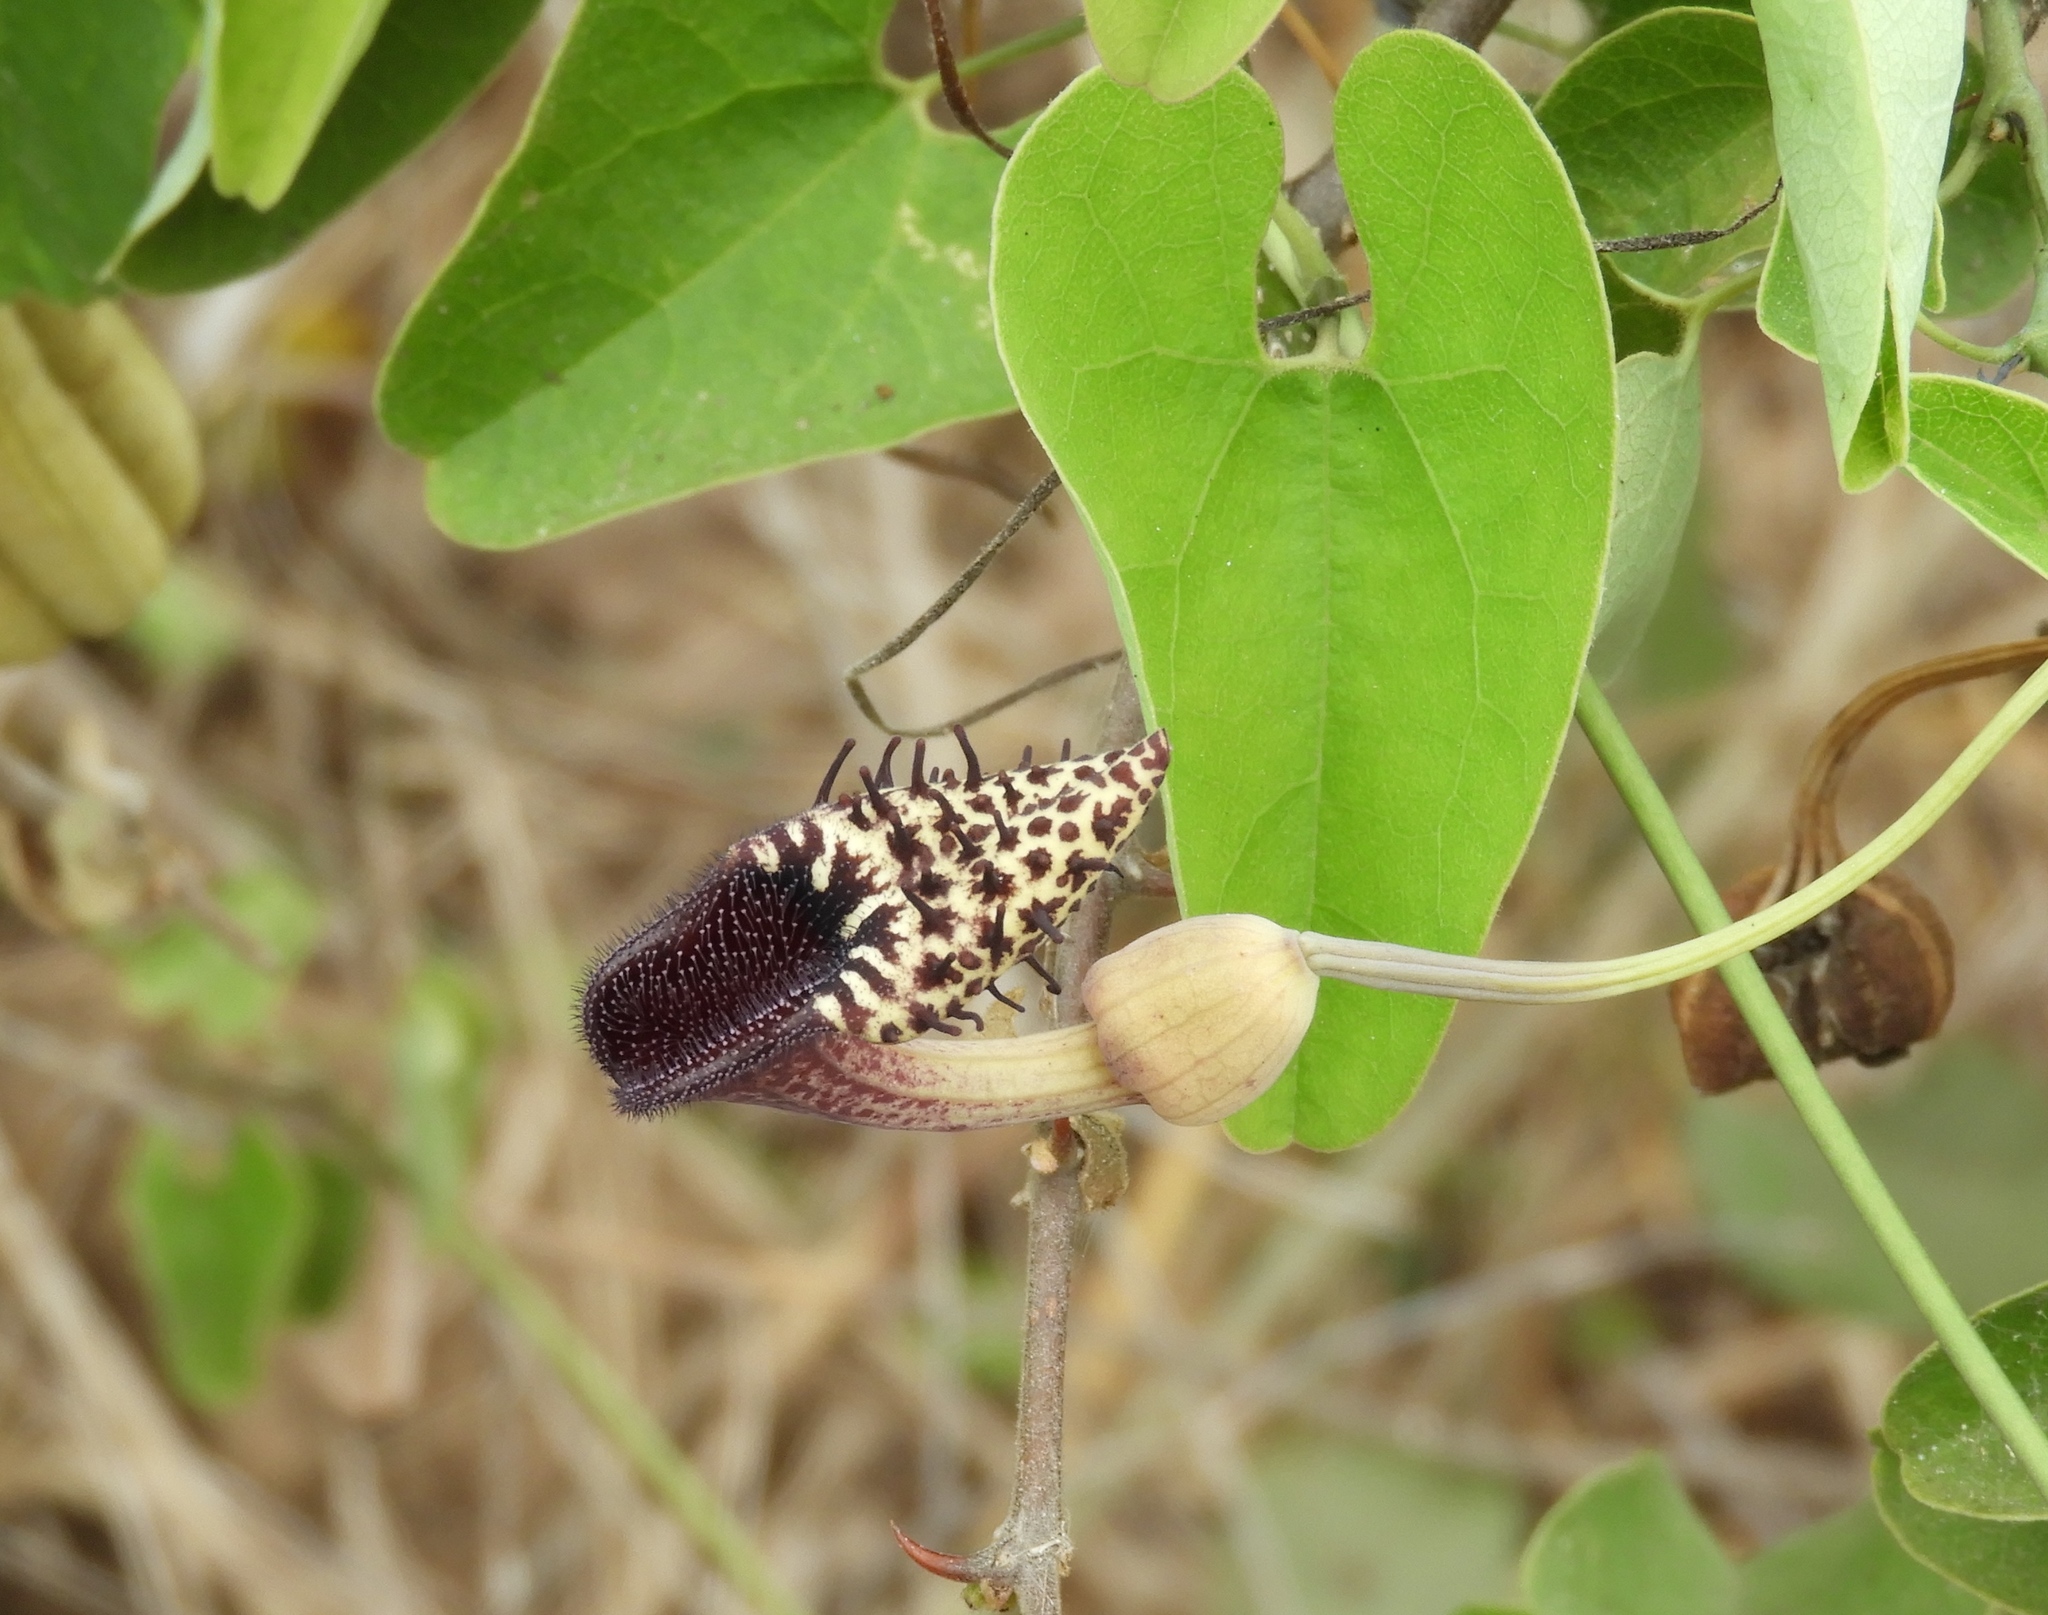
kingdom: Plantae
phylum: Tracheophyta
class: Magnoliopsida
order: Piperales
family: Aristolochiaceae
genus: Aristolochia
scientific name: Aristolochia taliscana
